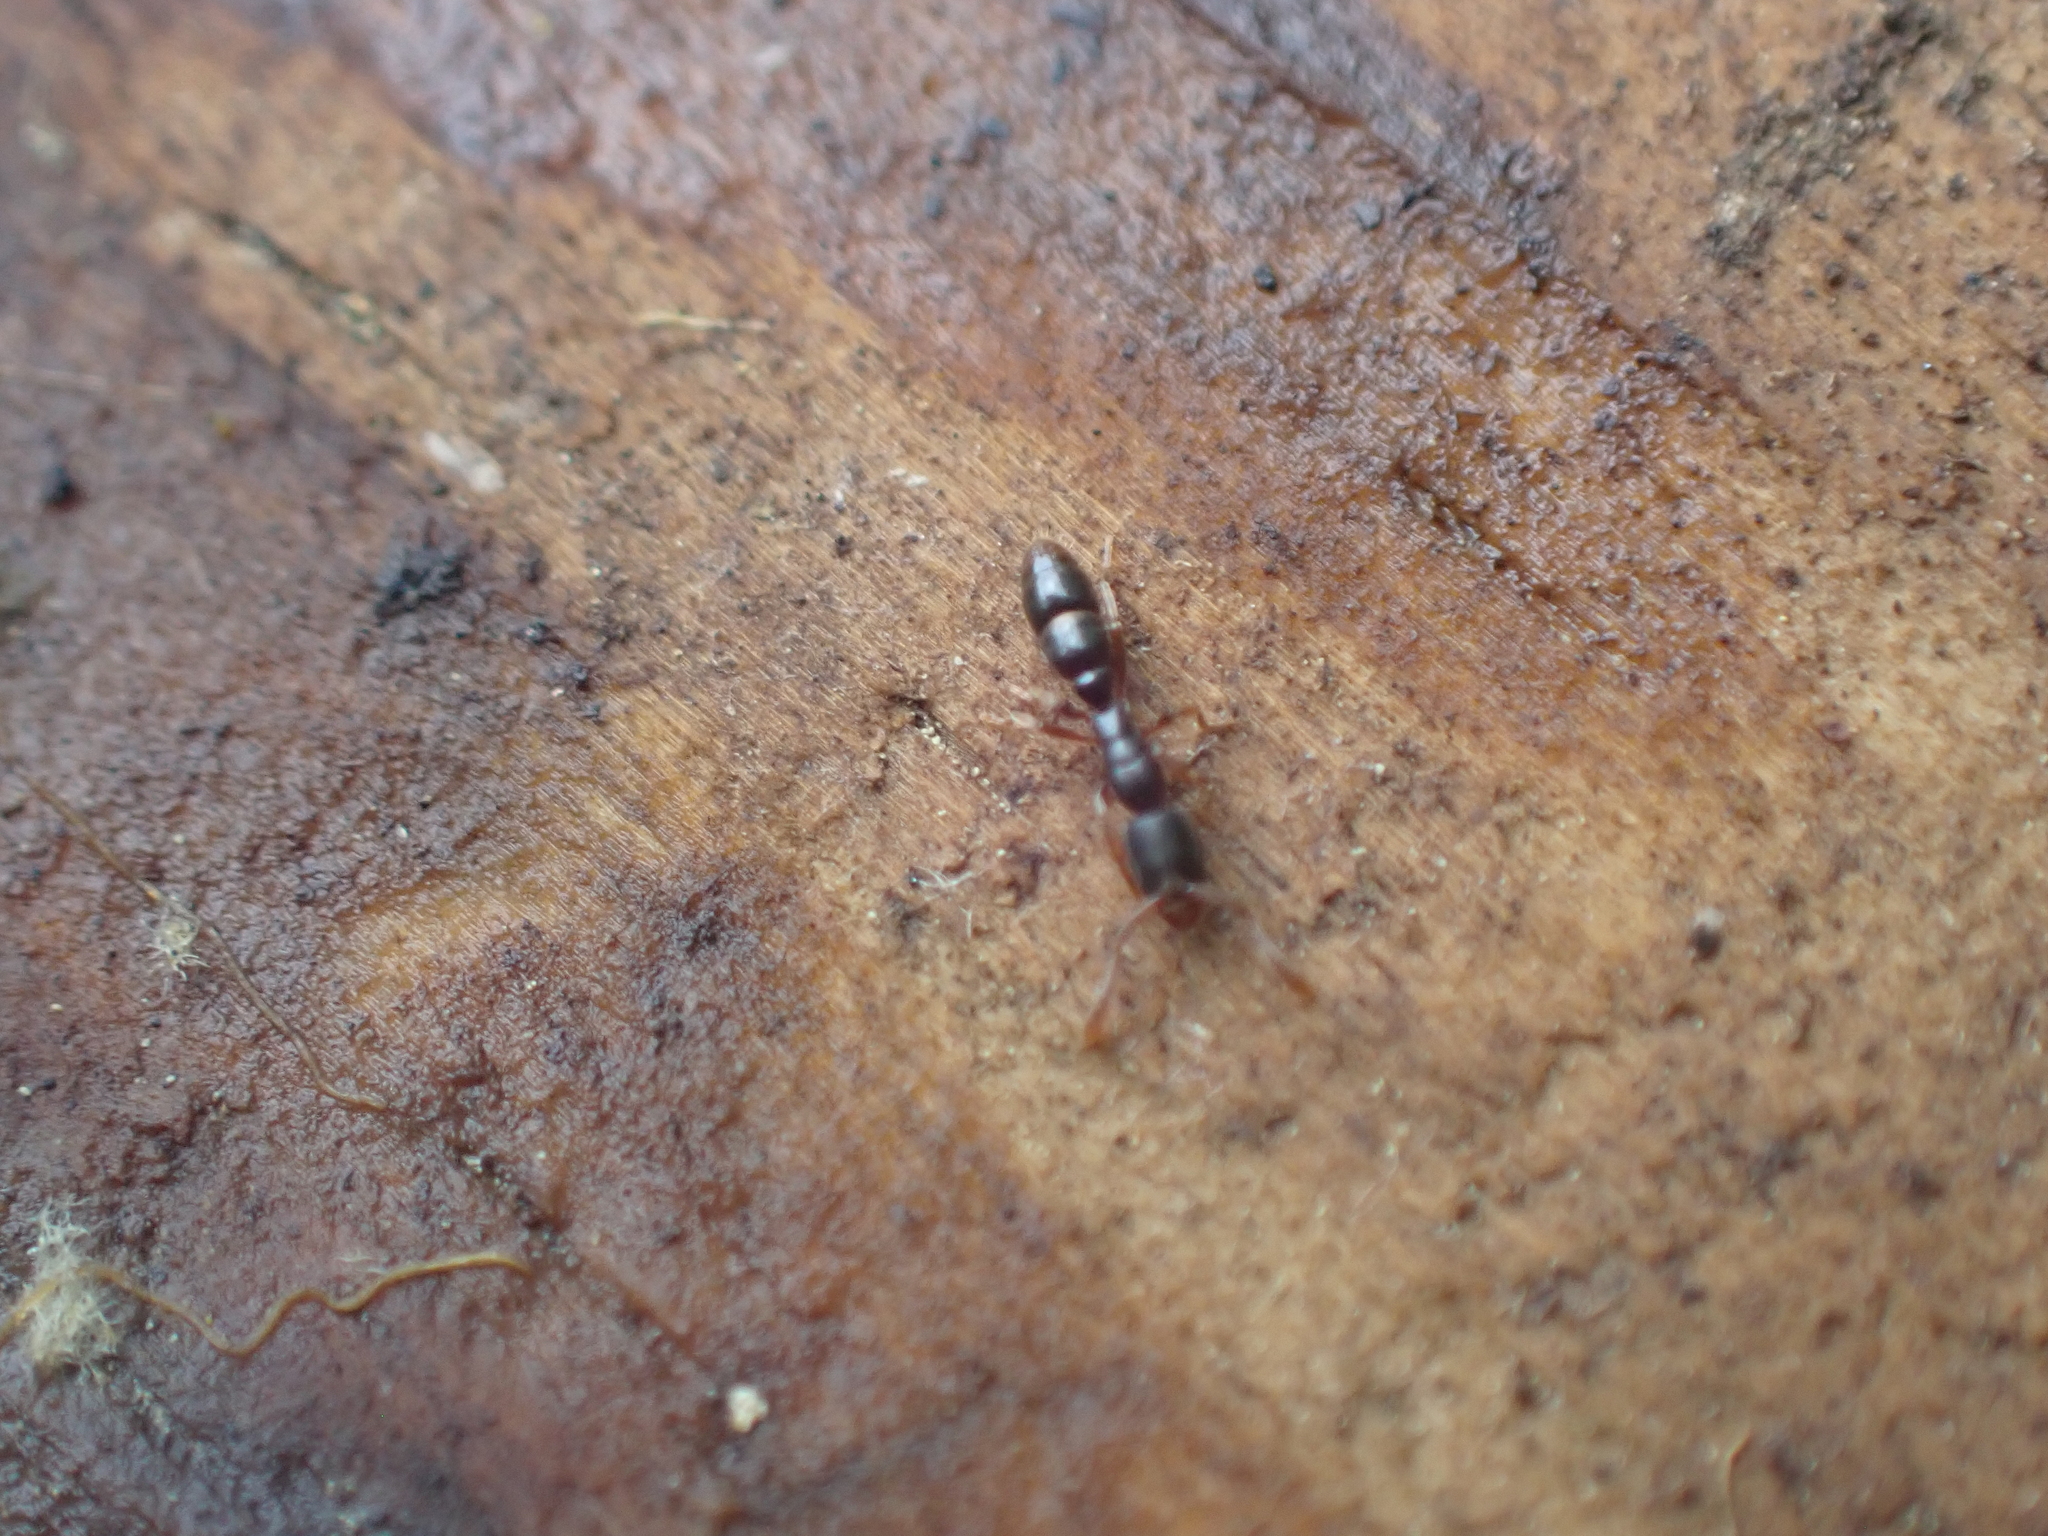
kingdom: Animalia
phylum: Arthropoda
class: Insecta
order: Hymenoptera
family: Formicidae
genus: Ponera
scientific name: Ponera pennsylvanica
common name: Pennsylvania ponera
